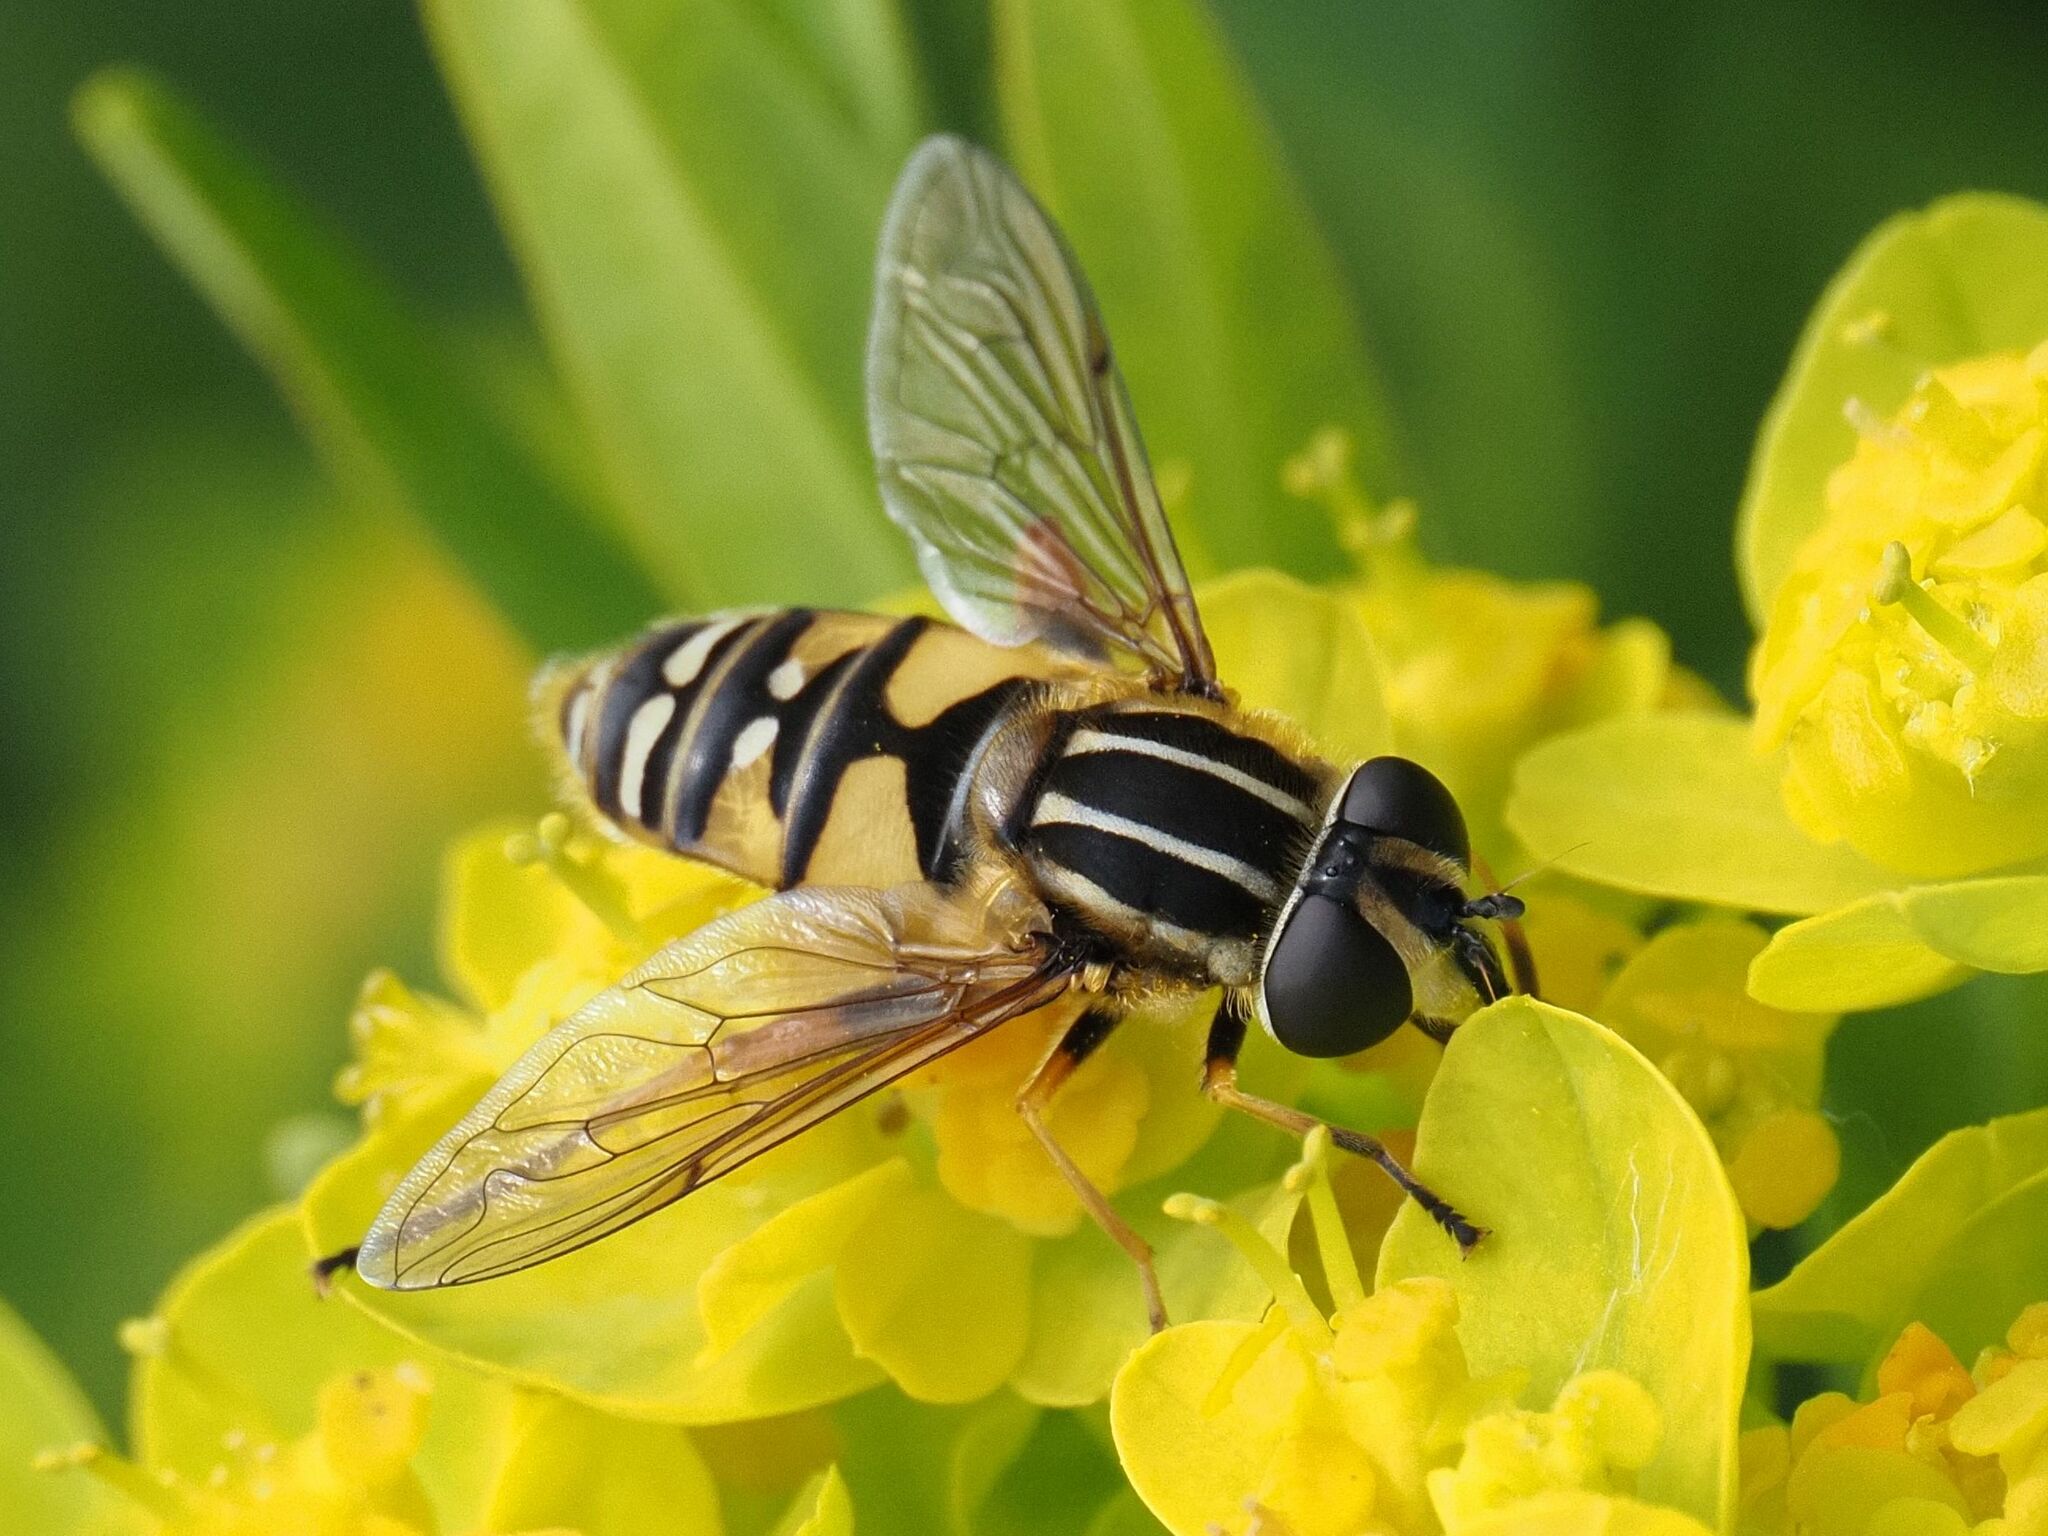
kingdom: Animalia
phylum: Arthropoda
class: Insecta
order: Diptera
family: Syrphidae
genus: Helophilus
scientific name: Helophilus pendulus
